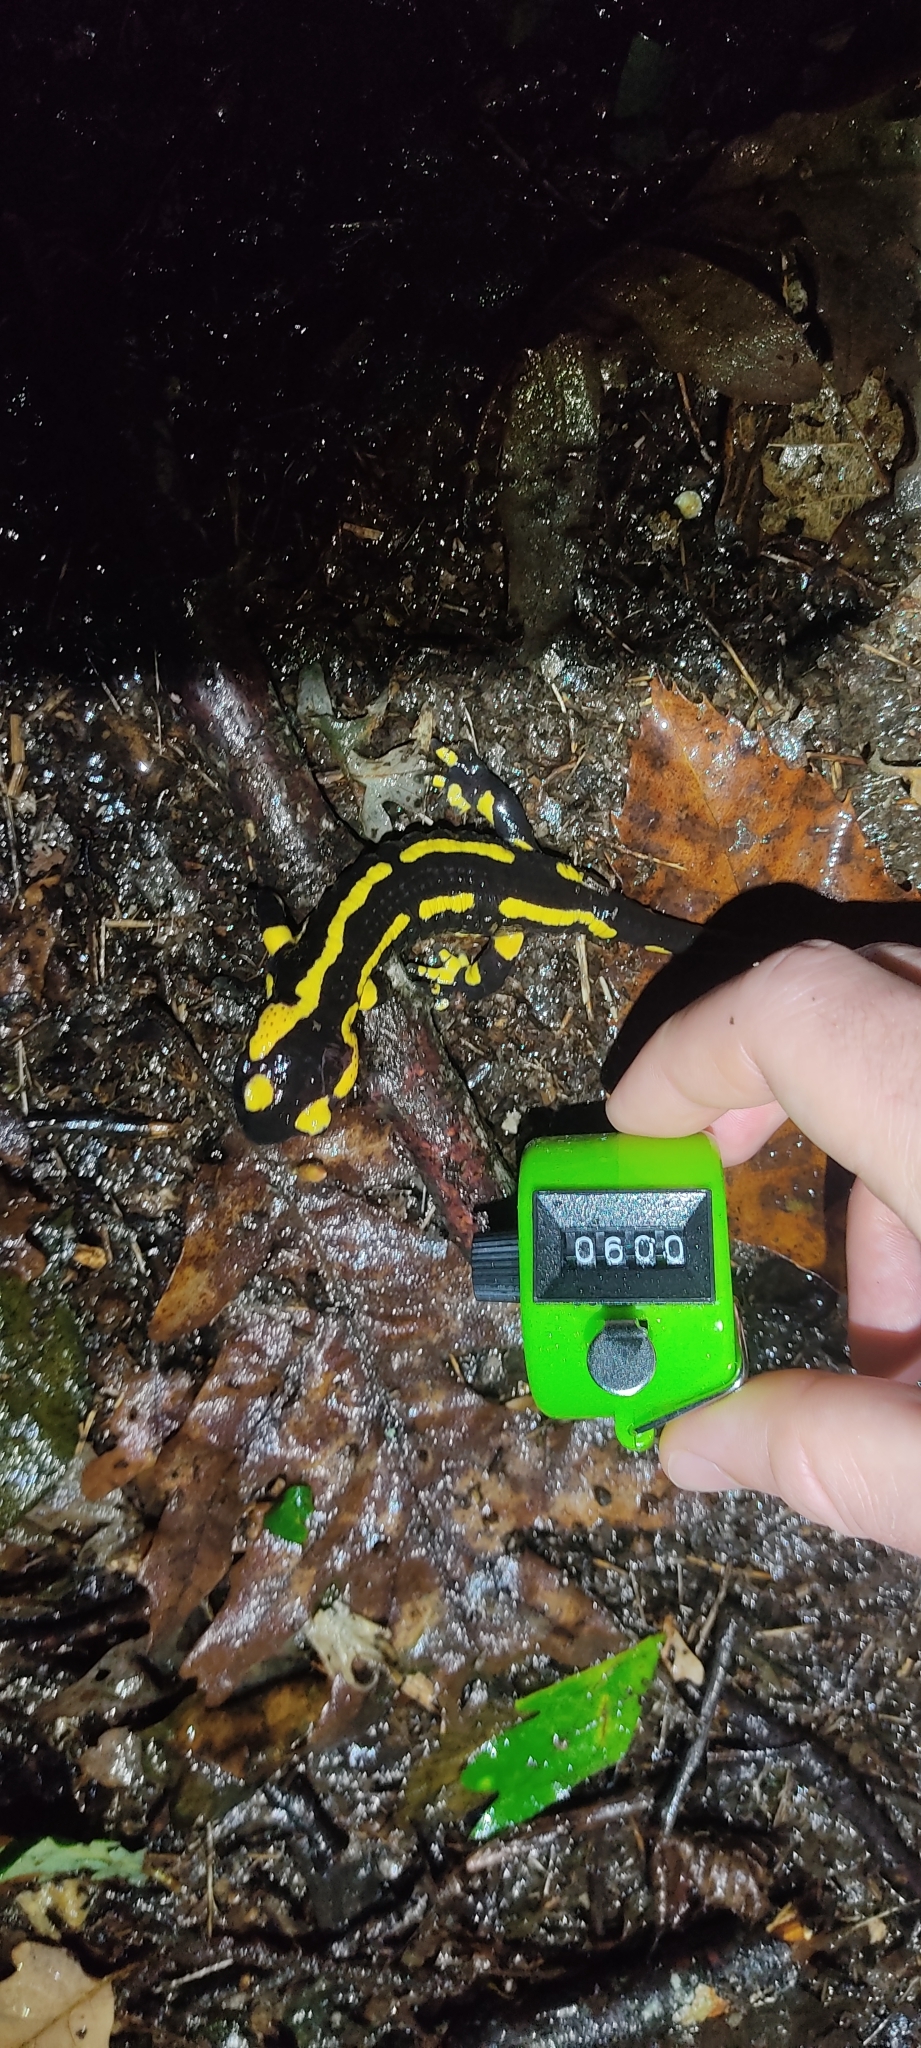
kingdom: Animalia
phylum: Chordata
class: Amphibia
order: Caudata
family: Salamandridae
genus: Salamandra
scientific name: Salamandra salamandra
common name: Fire salamander
